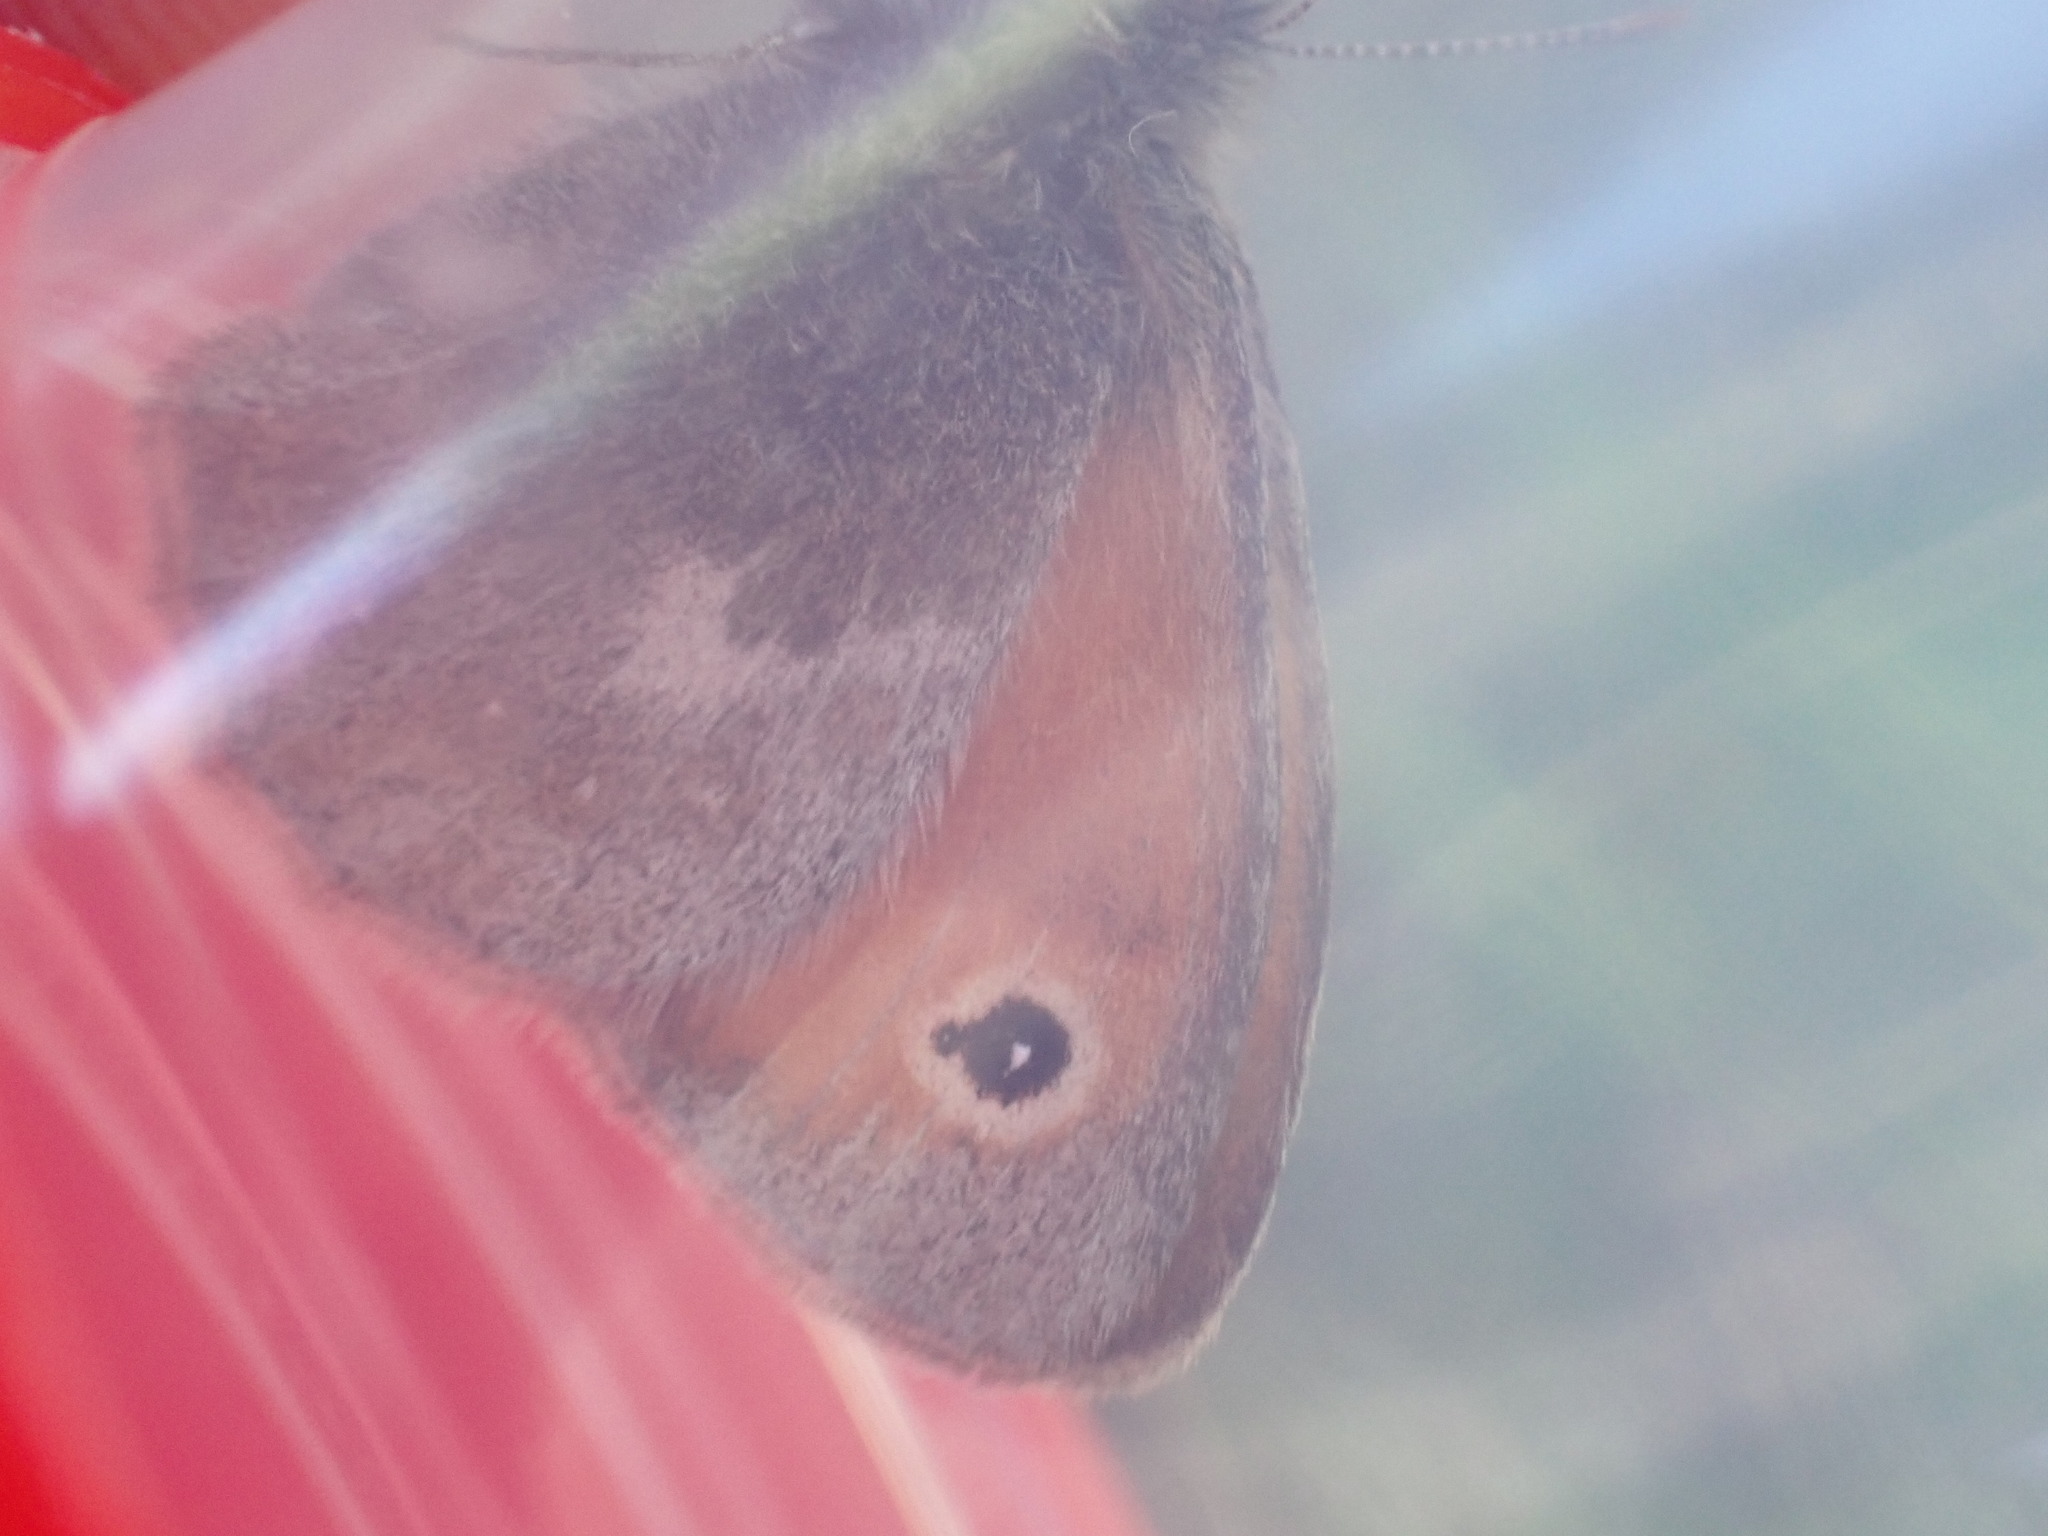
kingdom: Animalia
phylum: Arthropoda
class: Insecta
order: Lepidoptera
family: Nymphalidae
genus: Coenonympha
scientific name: Coenonympha pamphilus
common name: Small heath
